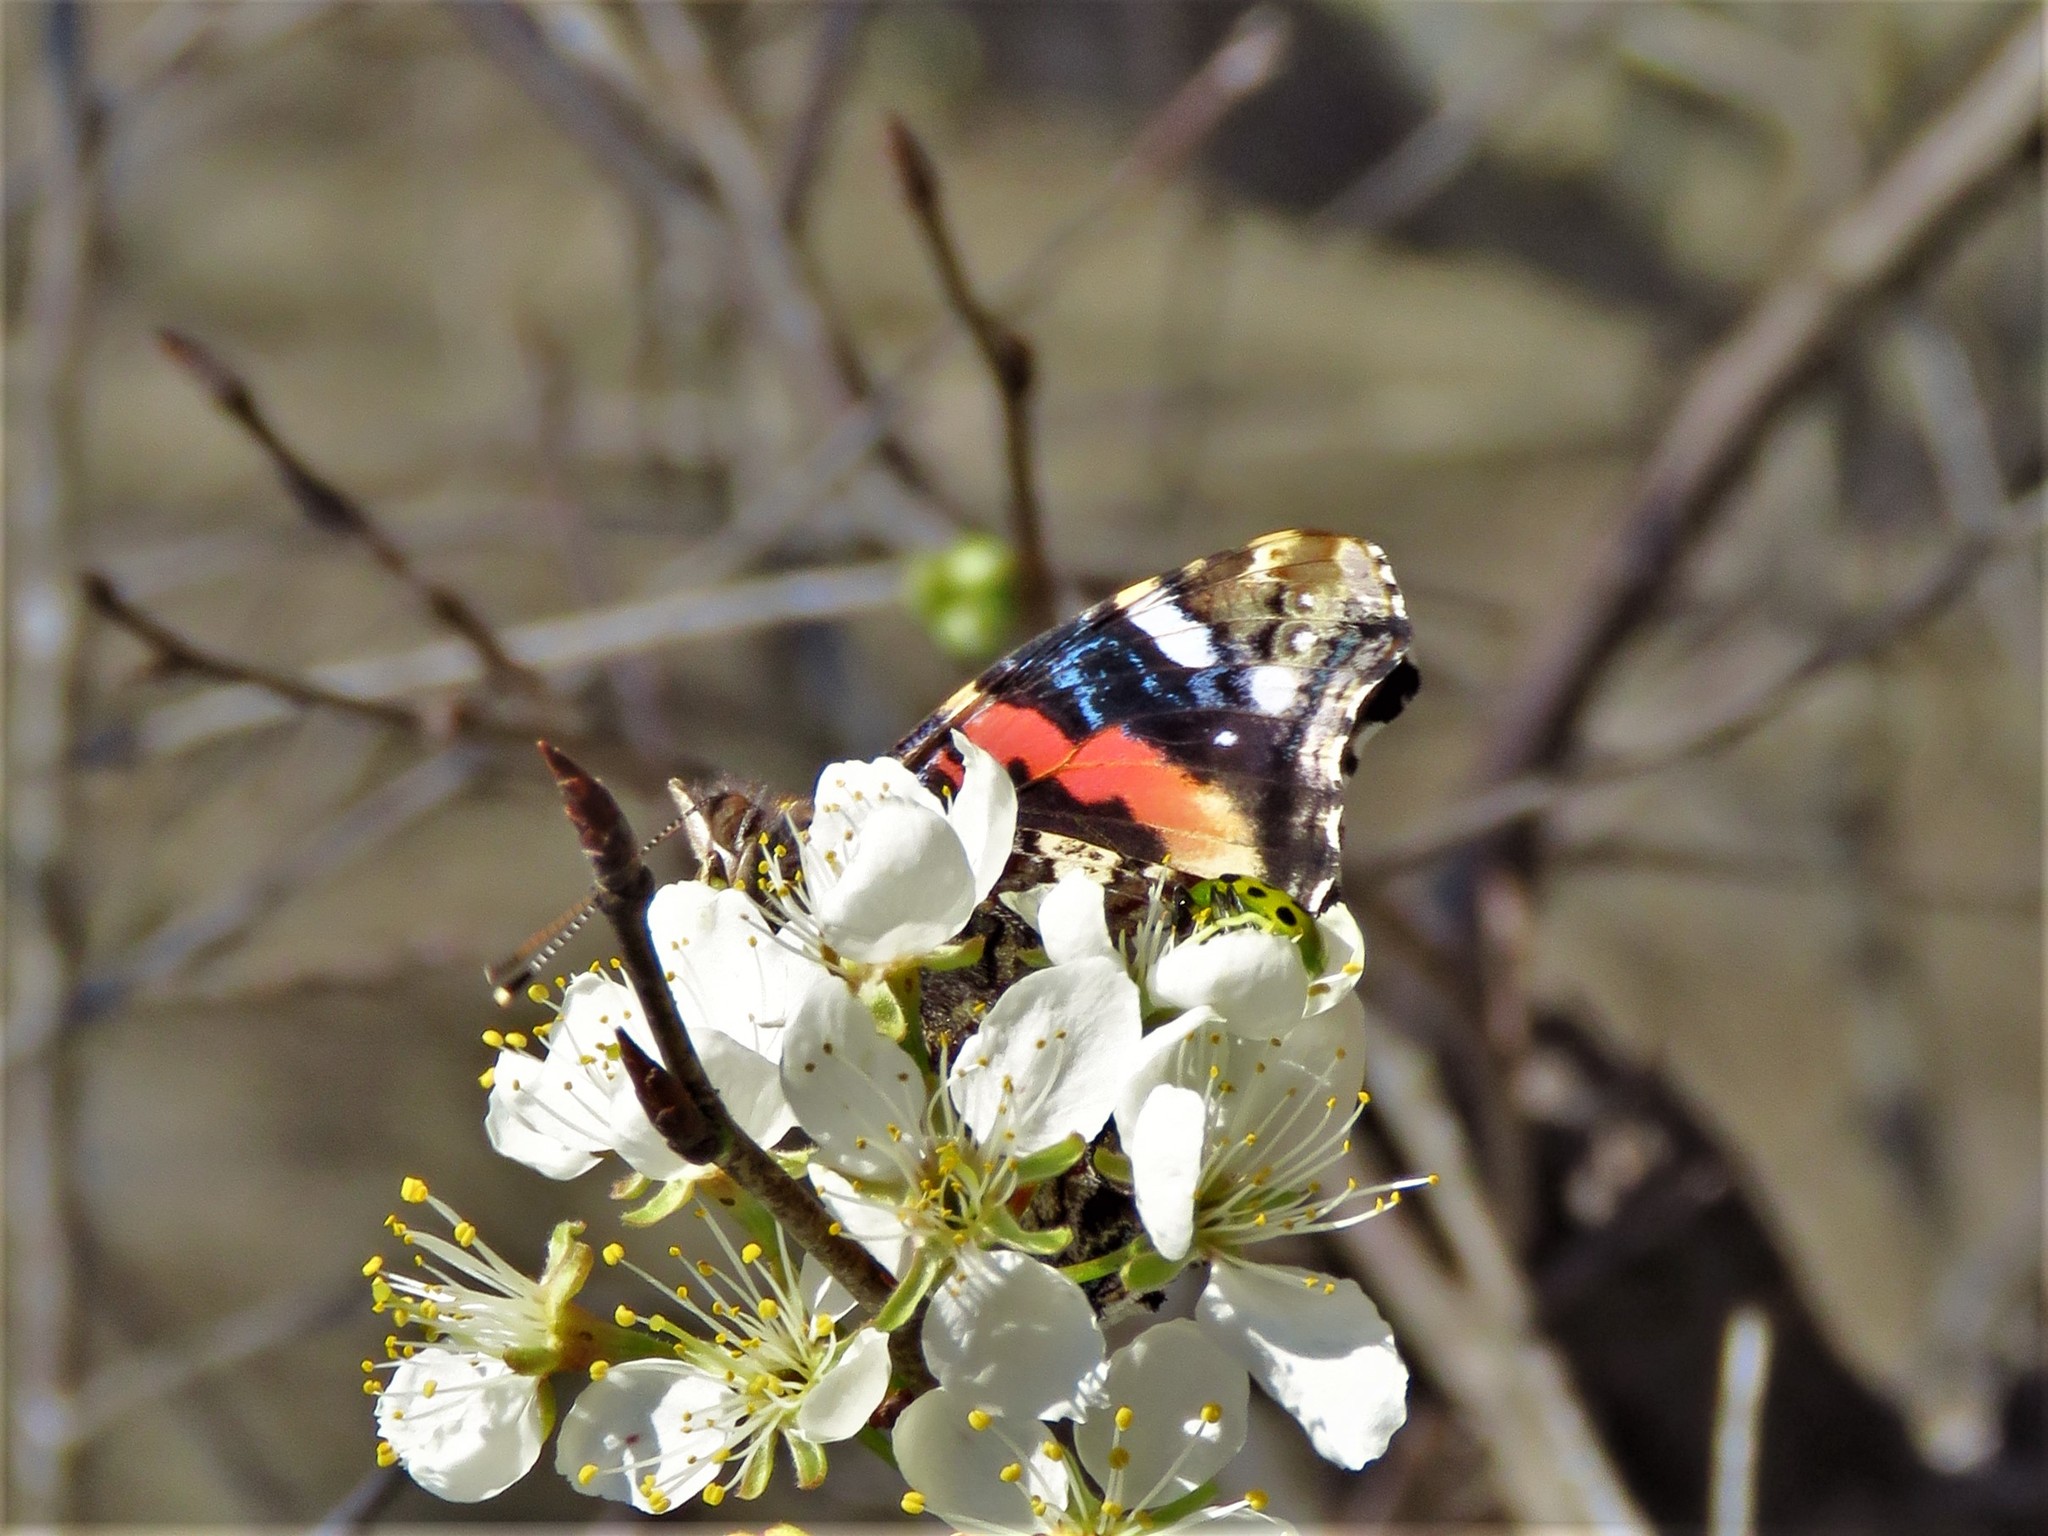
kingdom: Animalia
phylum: Arthropoda
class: Insecta
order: Lepidoptera
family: Nymphalidae
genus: Vanessa
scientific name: Vanessa atalanta
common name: Red admiral
